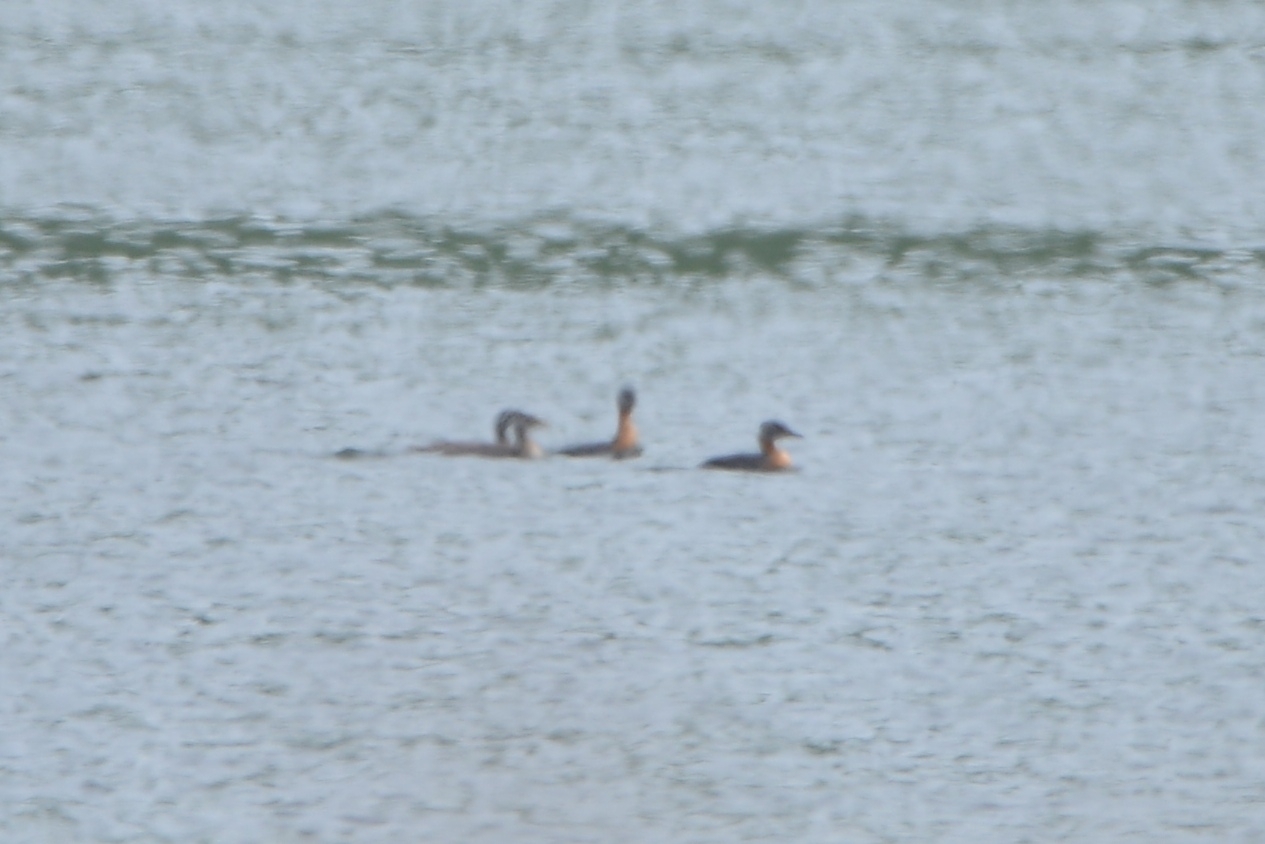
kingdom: Animalia
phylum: Chordata
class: Aves
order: Podicipediformes
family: Podicipedidae
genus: Podiceps
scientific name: Podiceps grisegena
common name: Red-necked grebe
